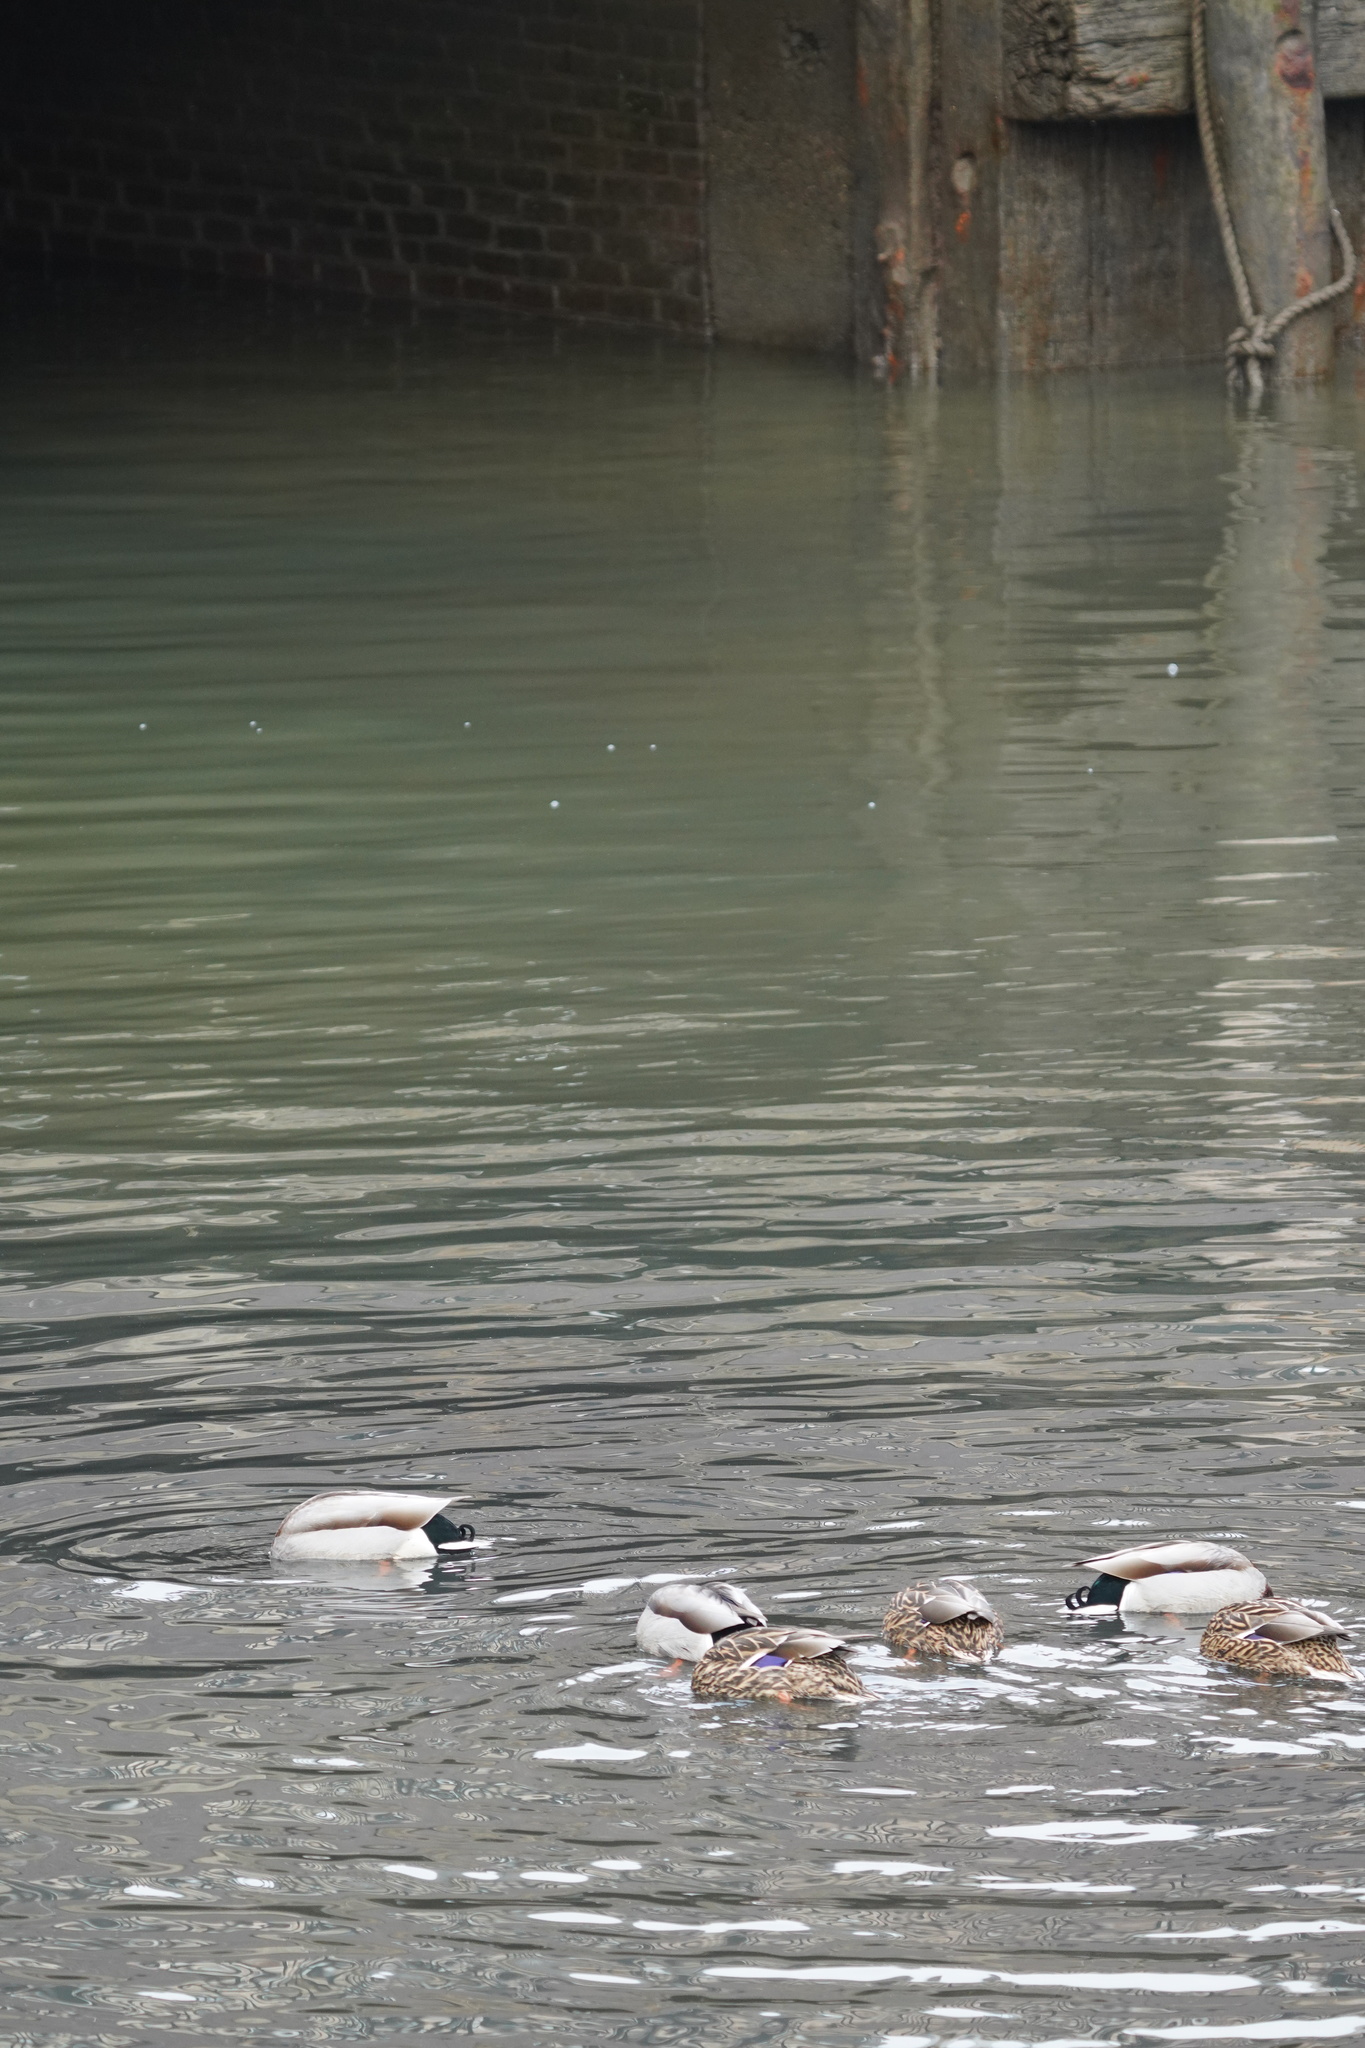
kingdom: Animalia
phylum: Chordata
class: Aves
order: Anseriformes
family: Anatidae
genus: Anas
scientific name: Anas platyrhynchos
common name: Mallard
